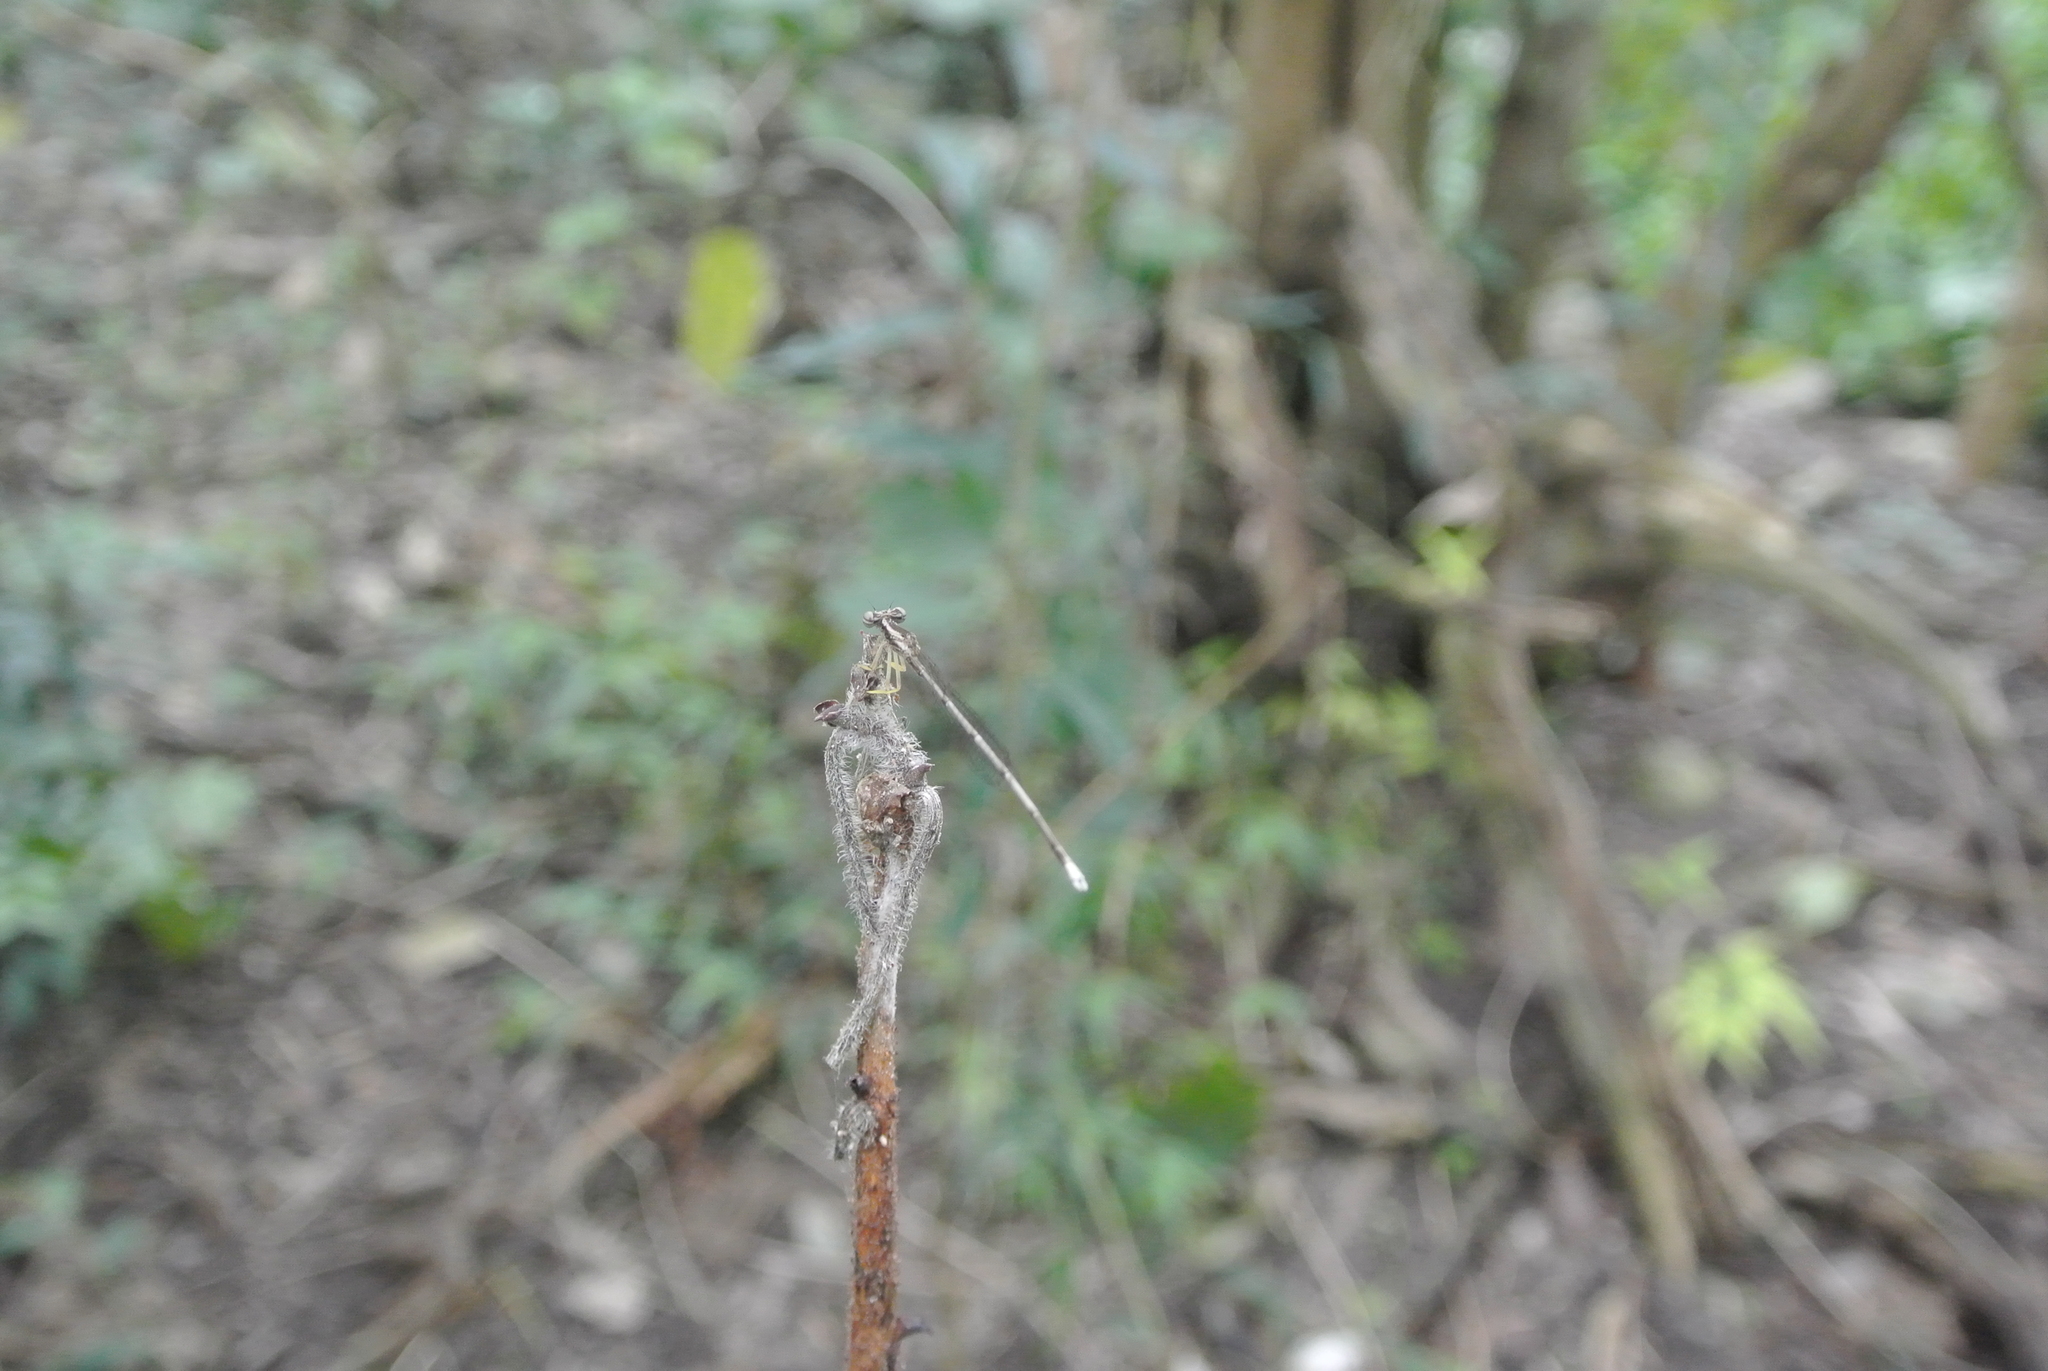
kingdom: Animalia
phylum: Arthropoda
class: Insecta
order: Odonata
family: Platycnemididae
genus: Copera
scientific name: Copera marginipes
